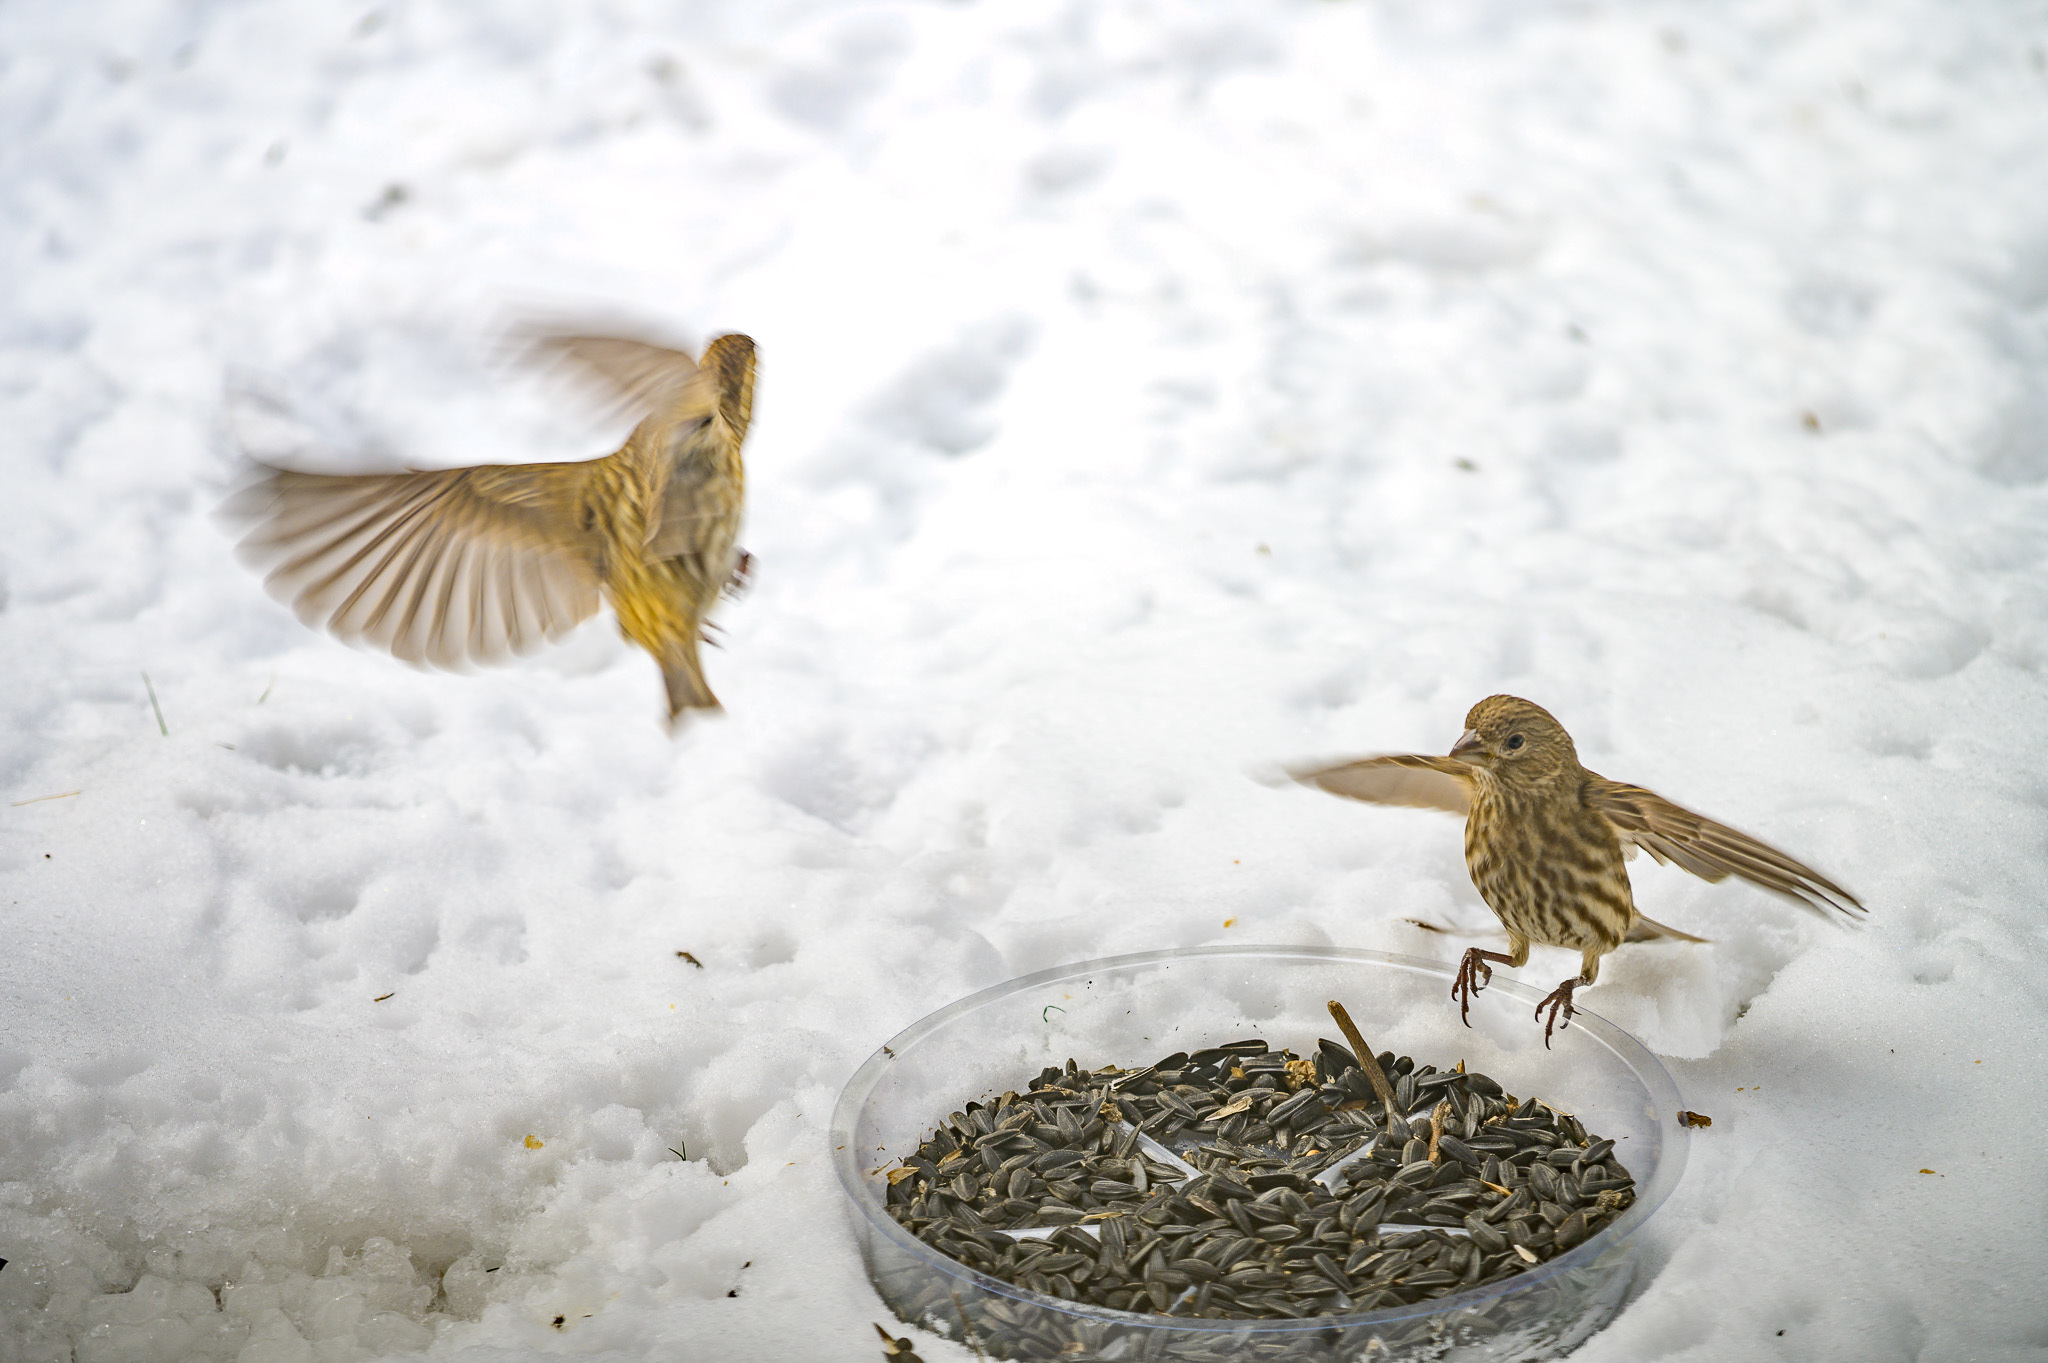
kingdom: Animalia
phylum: Chordata
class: Aves
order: Passeriformes
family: Fringillidae
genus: Haemorhous
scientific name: Haemorhous mexicanus
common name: House finch
